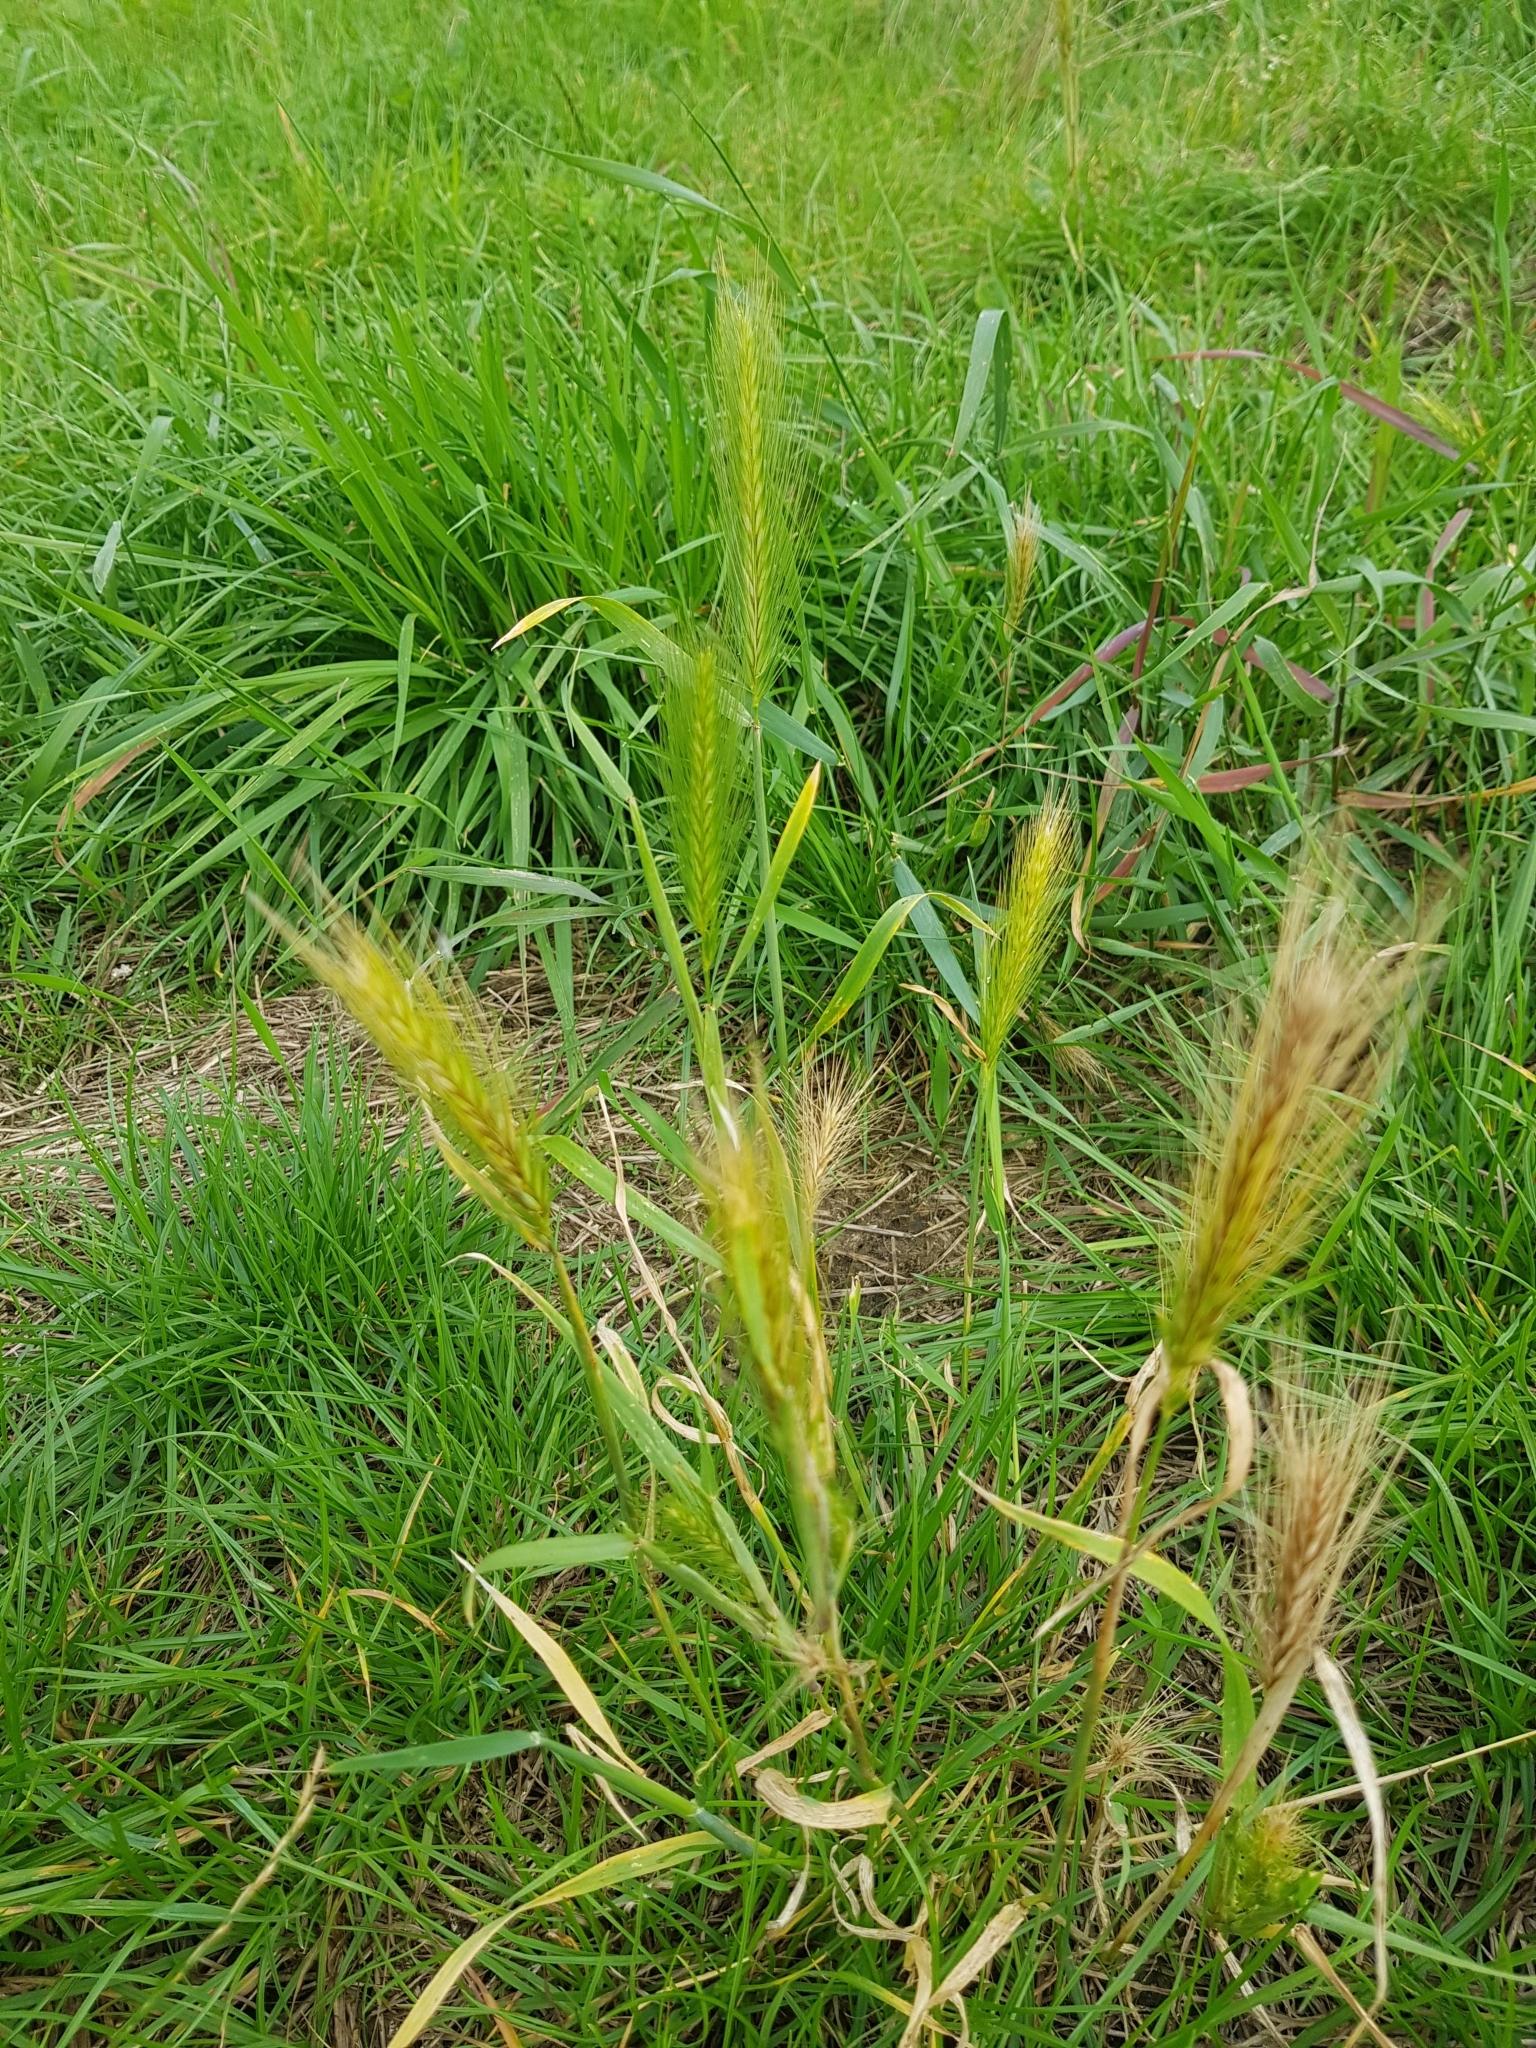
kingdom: Plantae
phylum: Tracheophyta
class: Liliopsida
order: Poales
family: Poaceae
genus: Hordeum
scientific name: Hordeum murinum
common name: Wall barley
